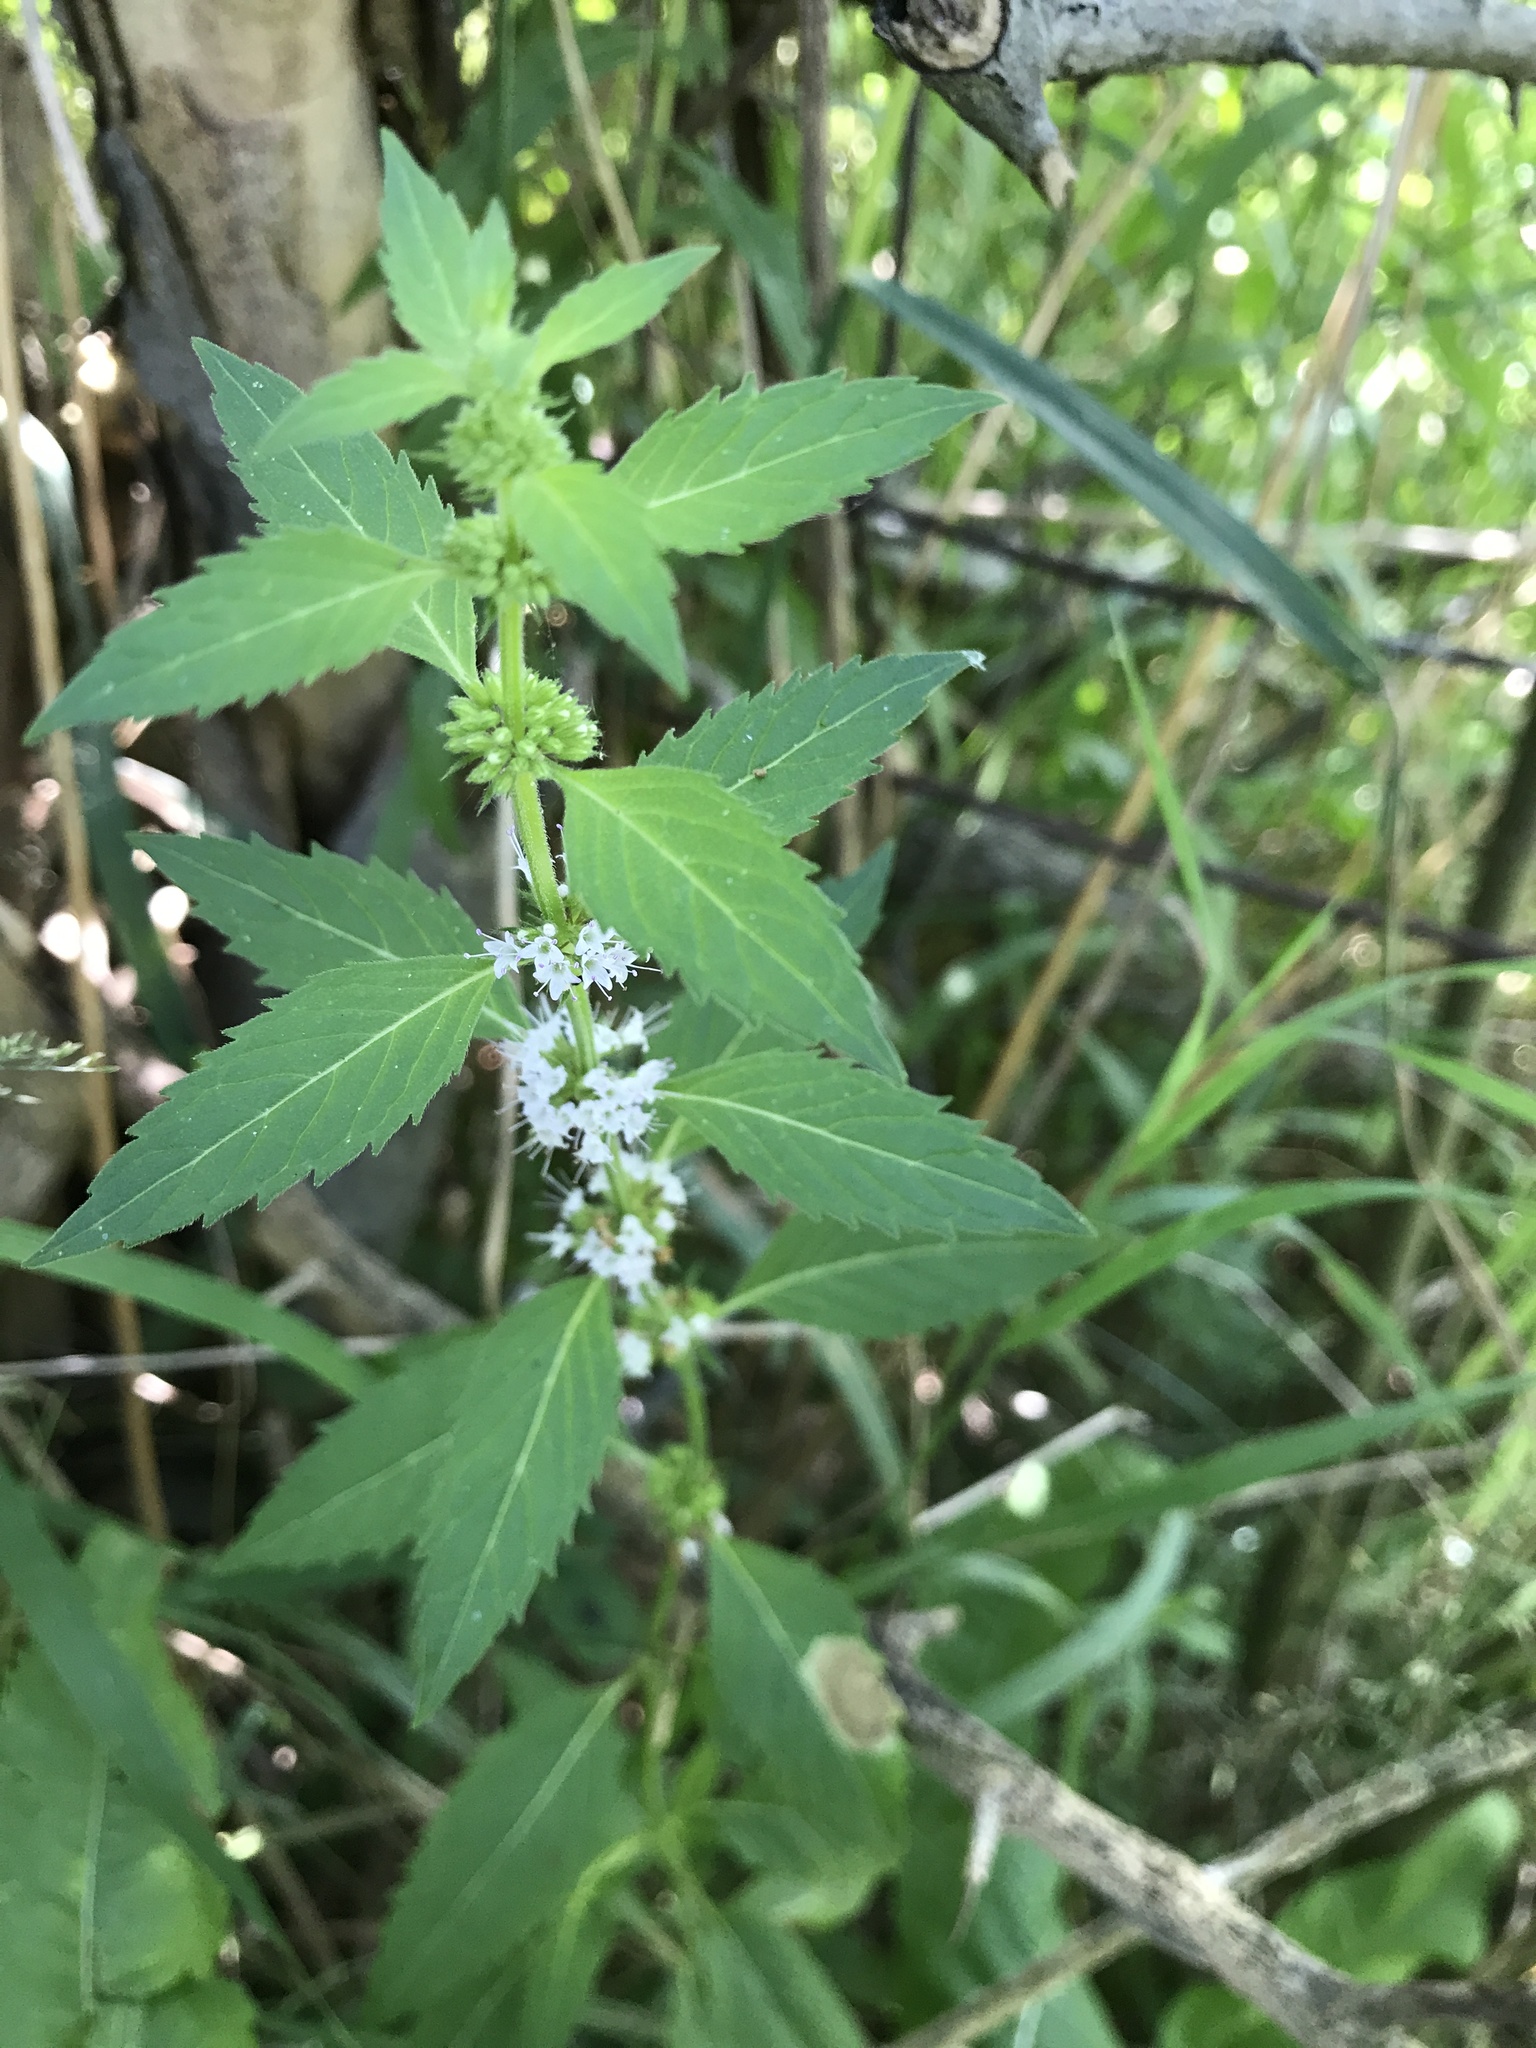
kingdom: Plantae
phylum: Tracheophyta
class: Magnoliopsida
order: Lamiales
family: Lamiaceae
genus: Lycopus
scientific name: Lycopus uniflorus
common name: Northern bugleweed
